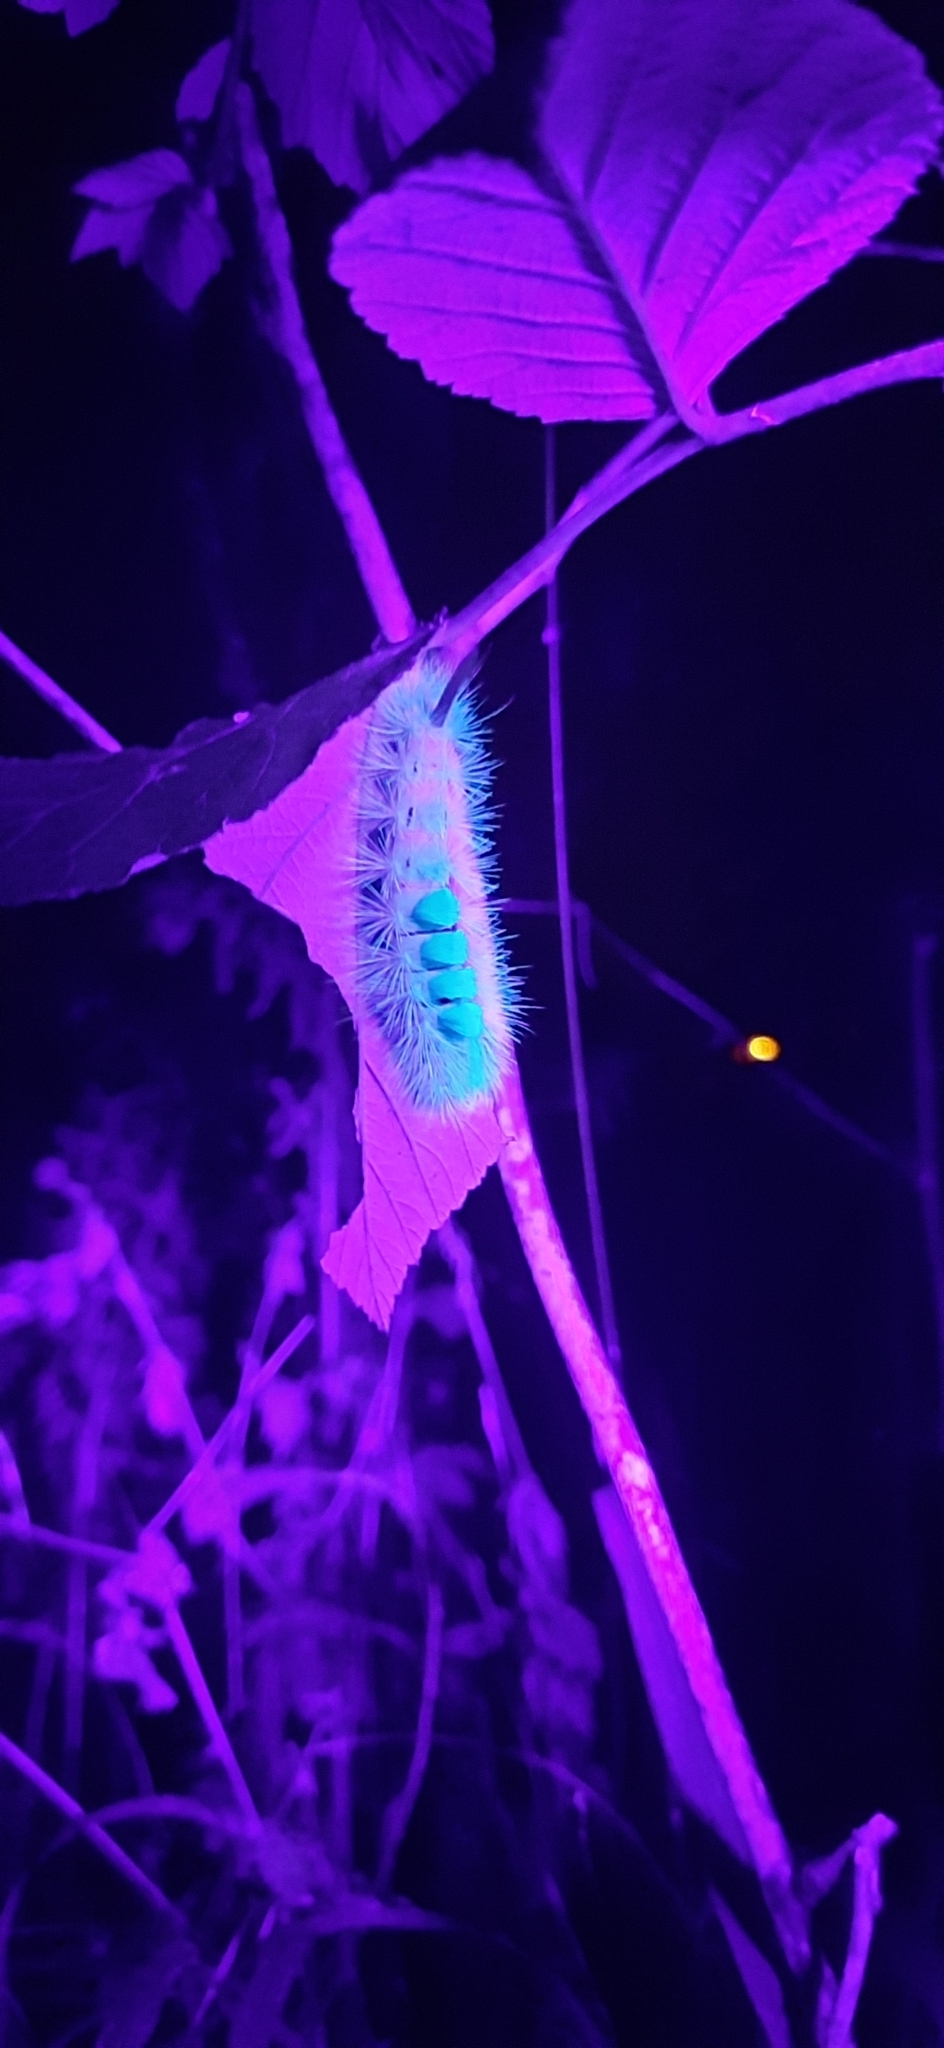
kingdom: Animalia
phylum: Arthropoda
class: Insecta
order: Lepidoptera
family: Erebidae
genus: Calliteara
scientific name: Calliteara pudibunda
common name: Pale tussock
